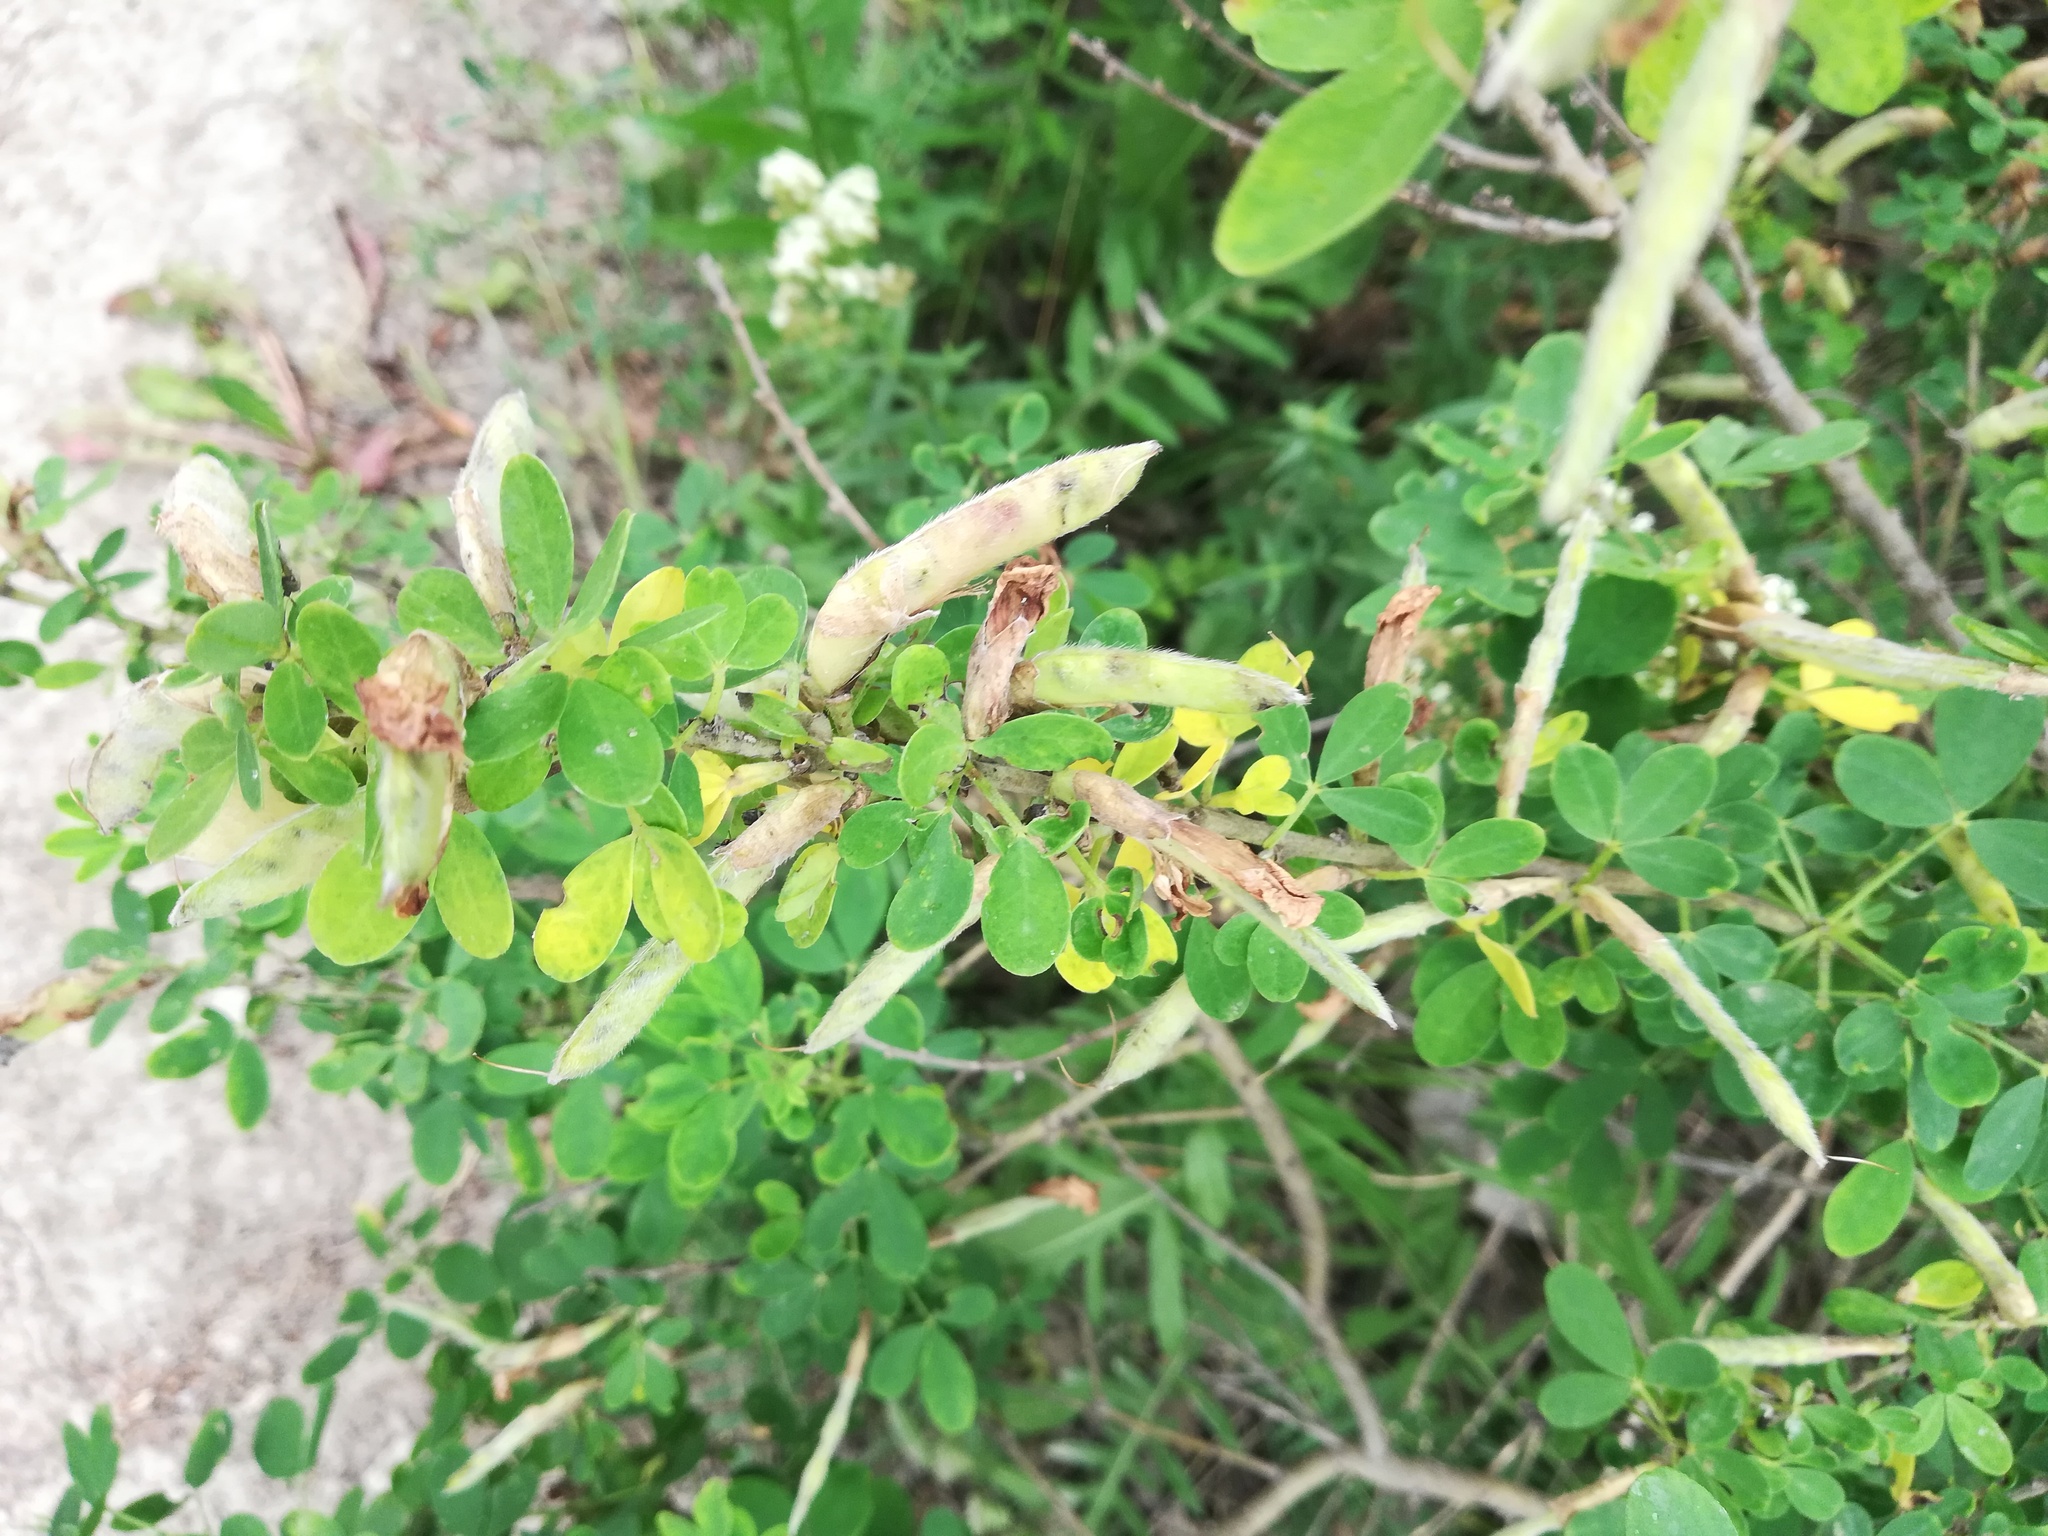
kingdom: Plantae
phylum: Tracheophyta
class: Magnoliopsida
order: Fabales
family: Fabaceae
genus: Chamaecytisus
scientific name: Chamaecytisus ruthenicus
